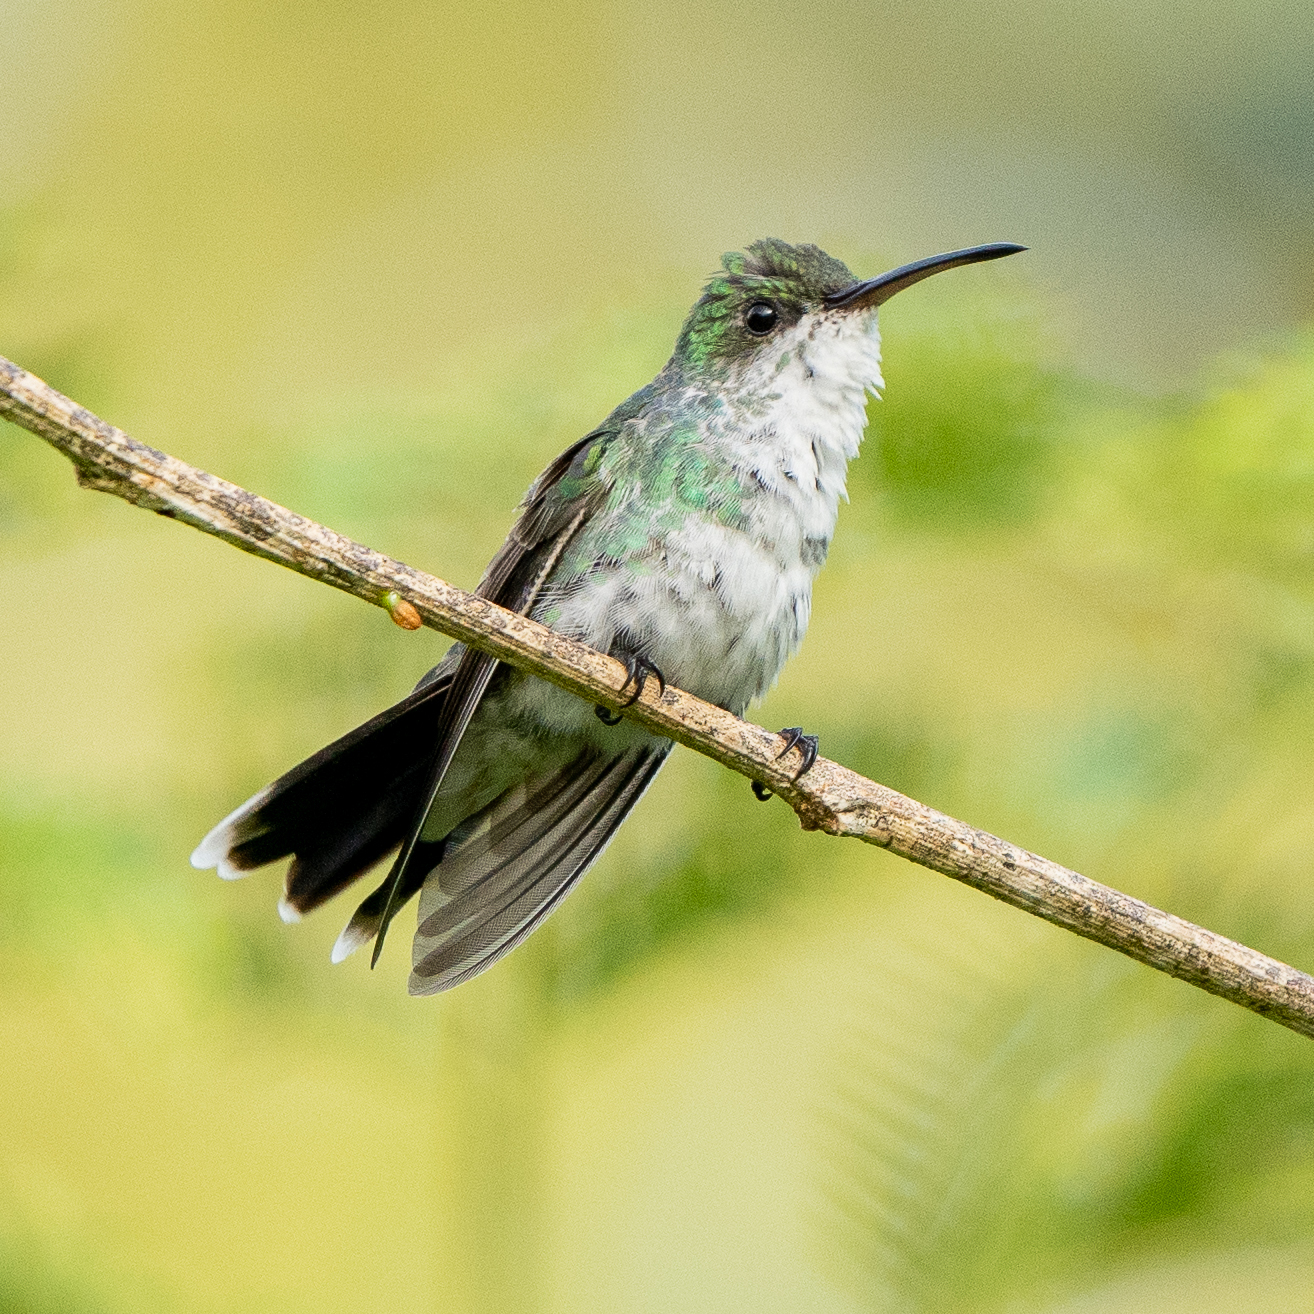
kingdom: Animalia
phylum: Chordata
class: Aves
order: Apodiformes
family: Trochilidae
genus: Chrysuronia
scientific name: Chrysuronia coeruleogularis
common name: Sapphire-throated hummingbird
